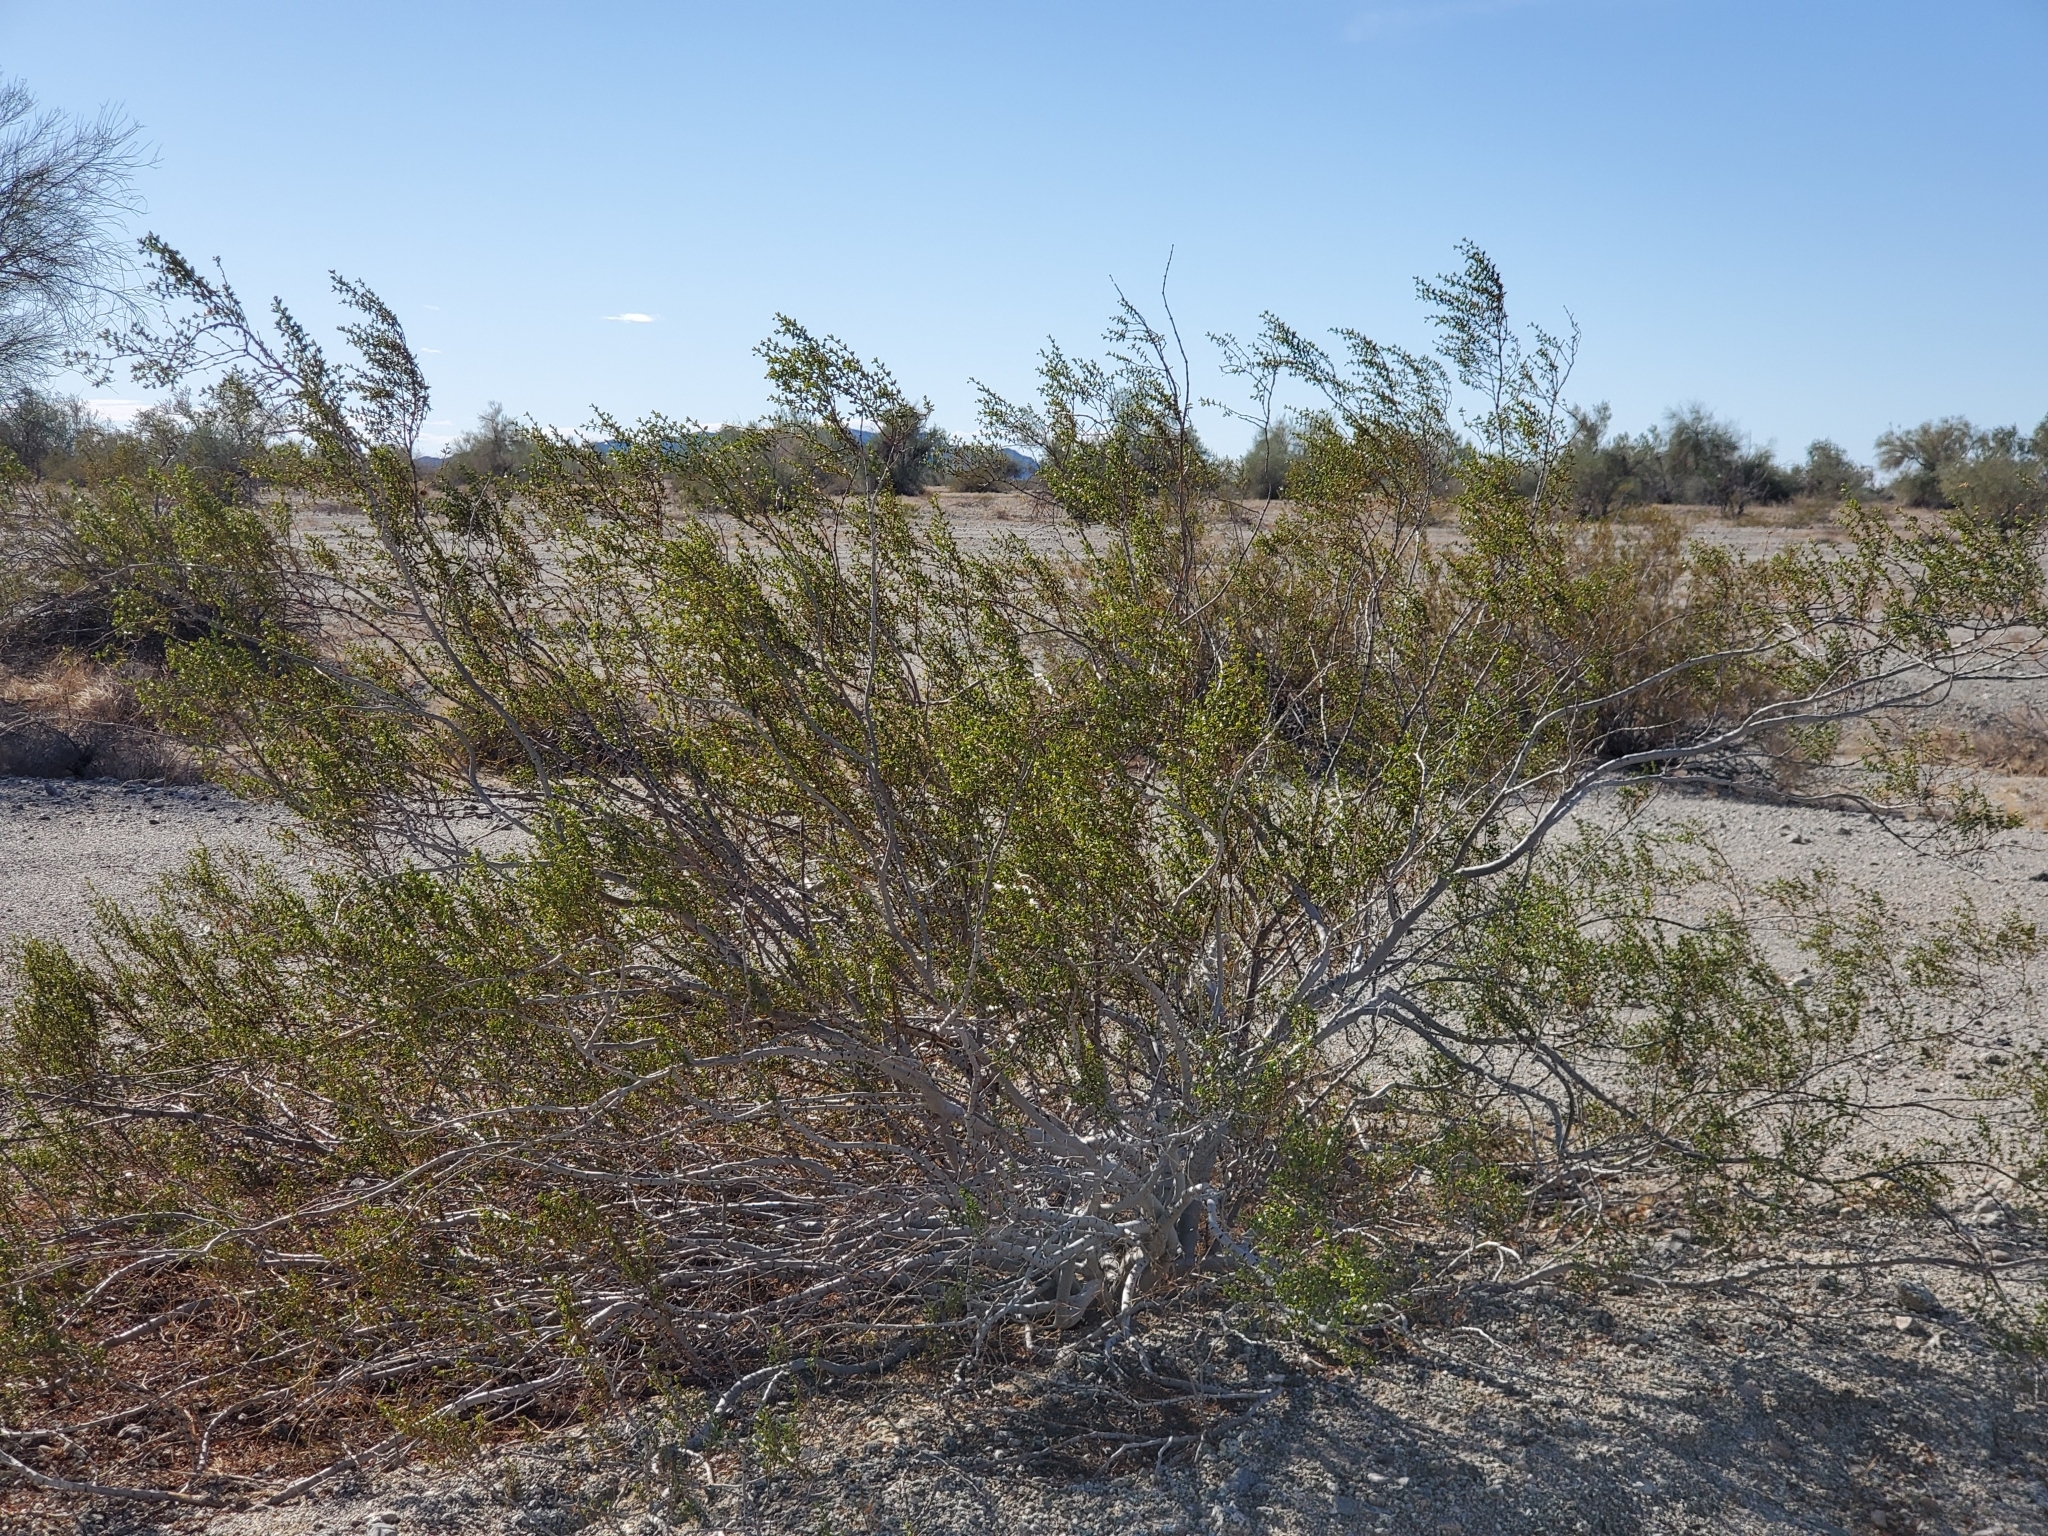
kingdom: Plantae
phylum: Tracheophyta
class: Magnoliopsida
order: Zygophyllales
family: Zygophyllaceae
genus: Larrea
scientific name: Larrea tridentata
